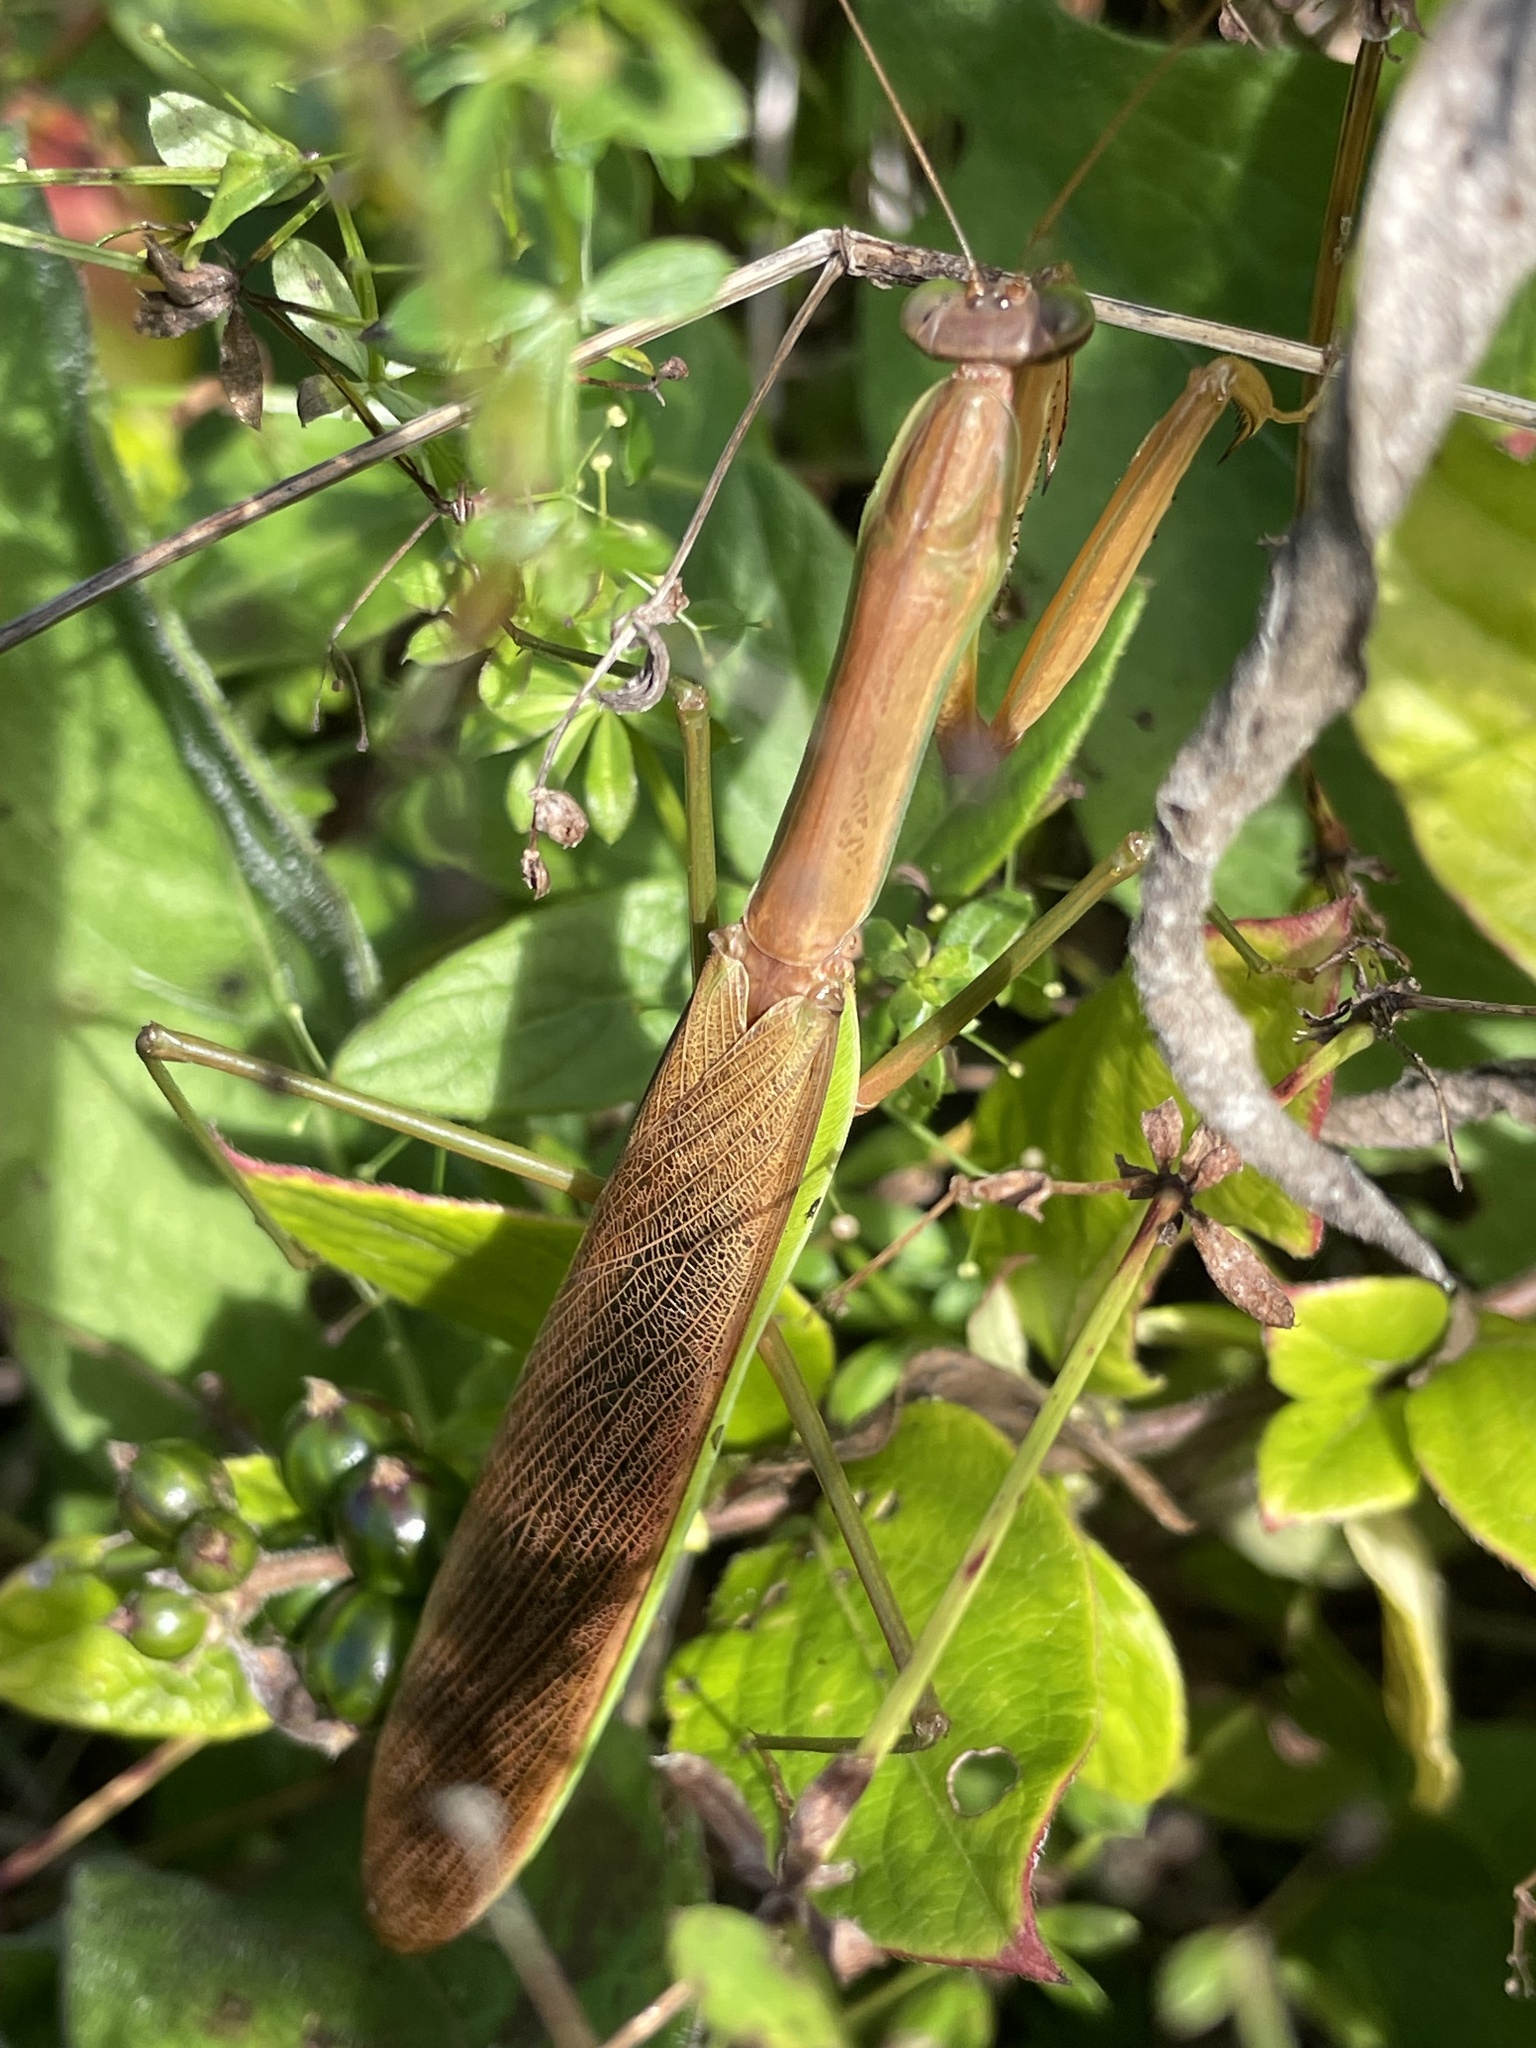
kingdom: Animalia
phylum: Arthropoda
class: Insecta
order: Mantodea
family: Mantidae
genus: Tenodera
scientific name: Tenodera sinensis
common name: Chinese mantis
